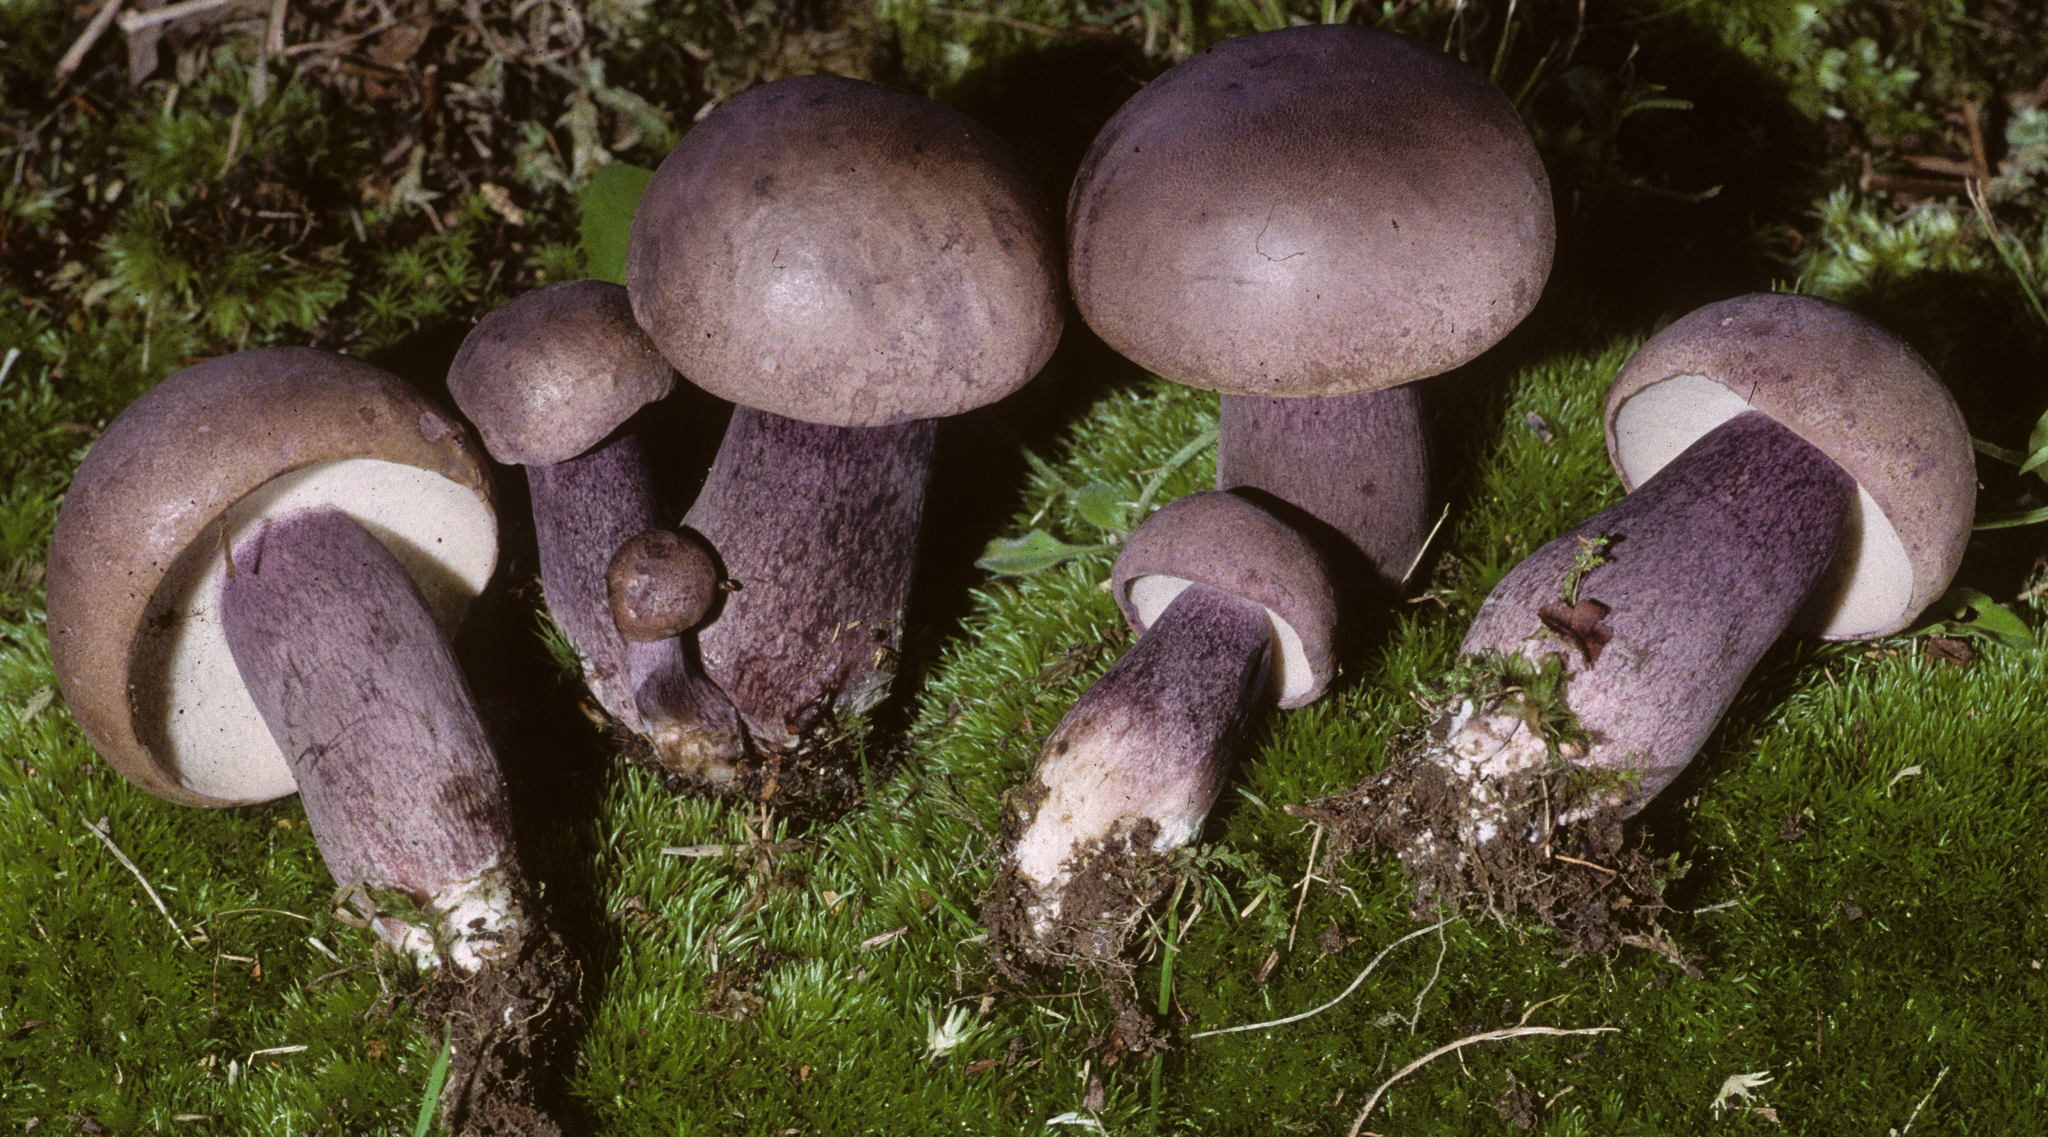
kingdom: Fungi
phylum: Basidiomycota
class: Agaricomycetes
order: Boletales
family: Boletaceae
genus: Tylopilus
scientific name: Tylopilus plumbeoviolaceus
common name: Violet gray bolete
